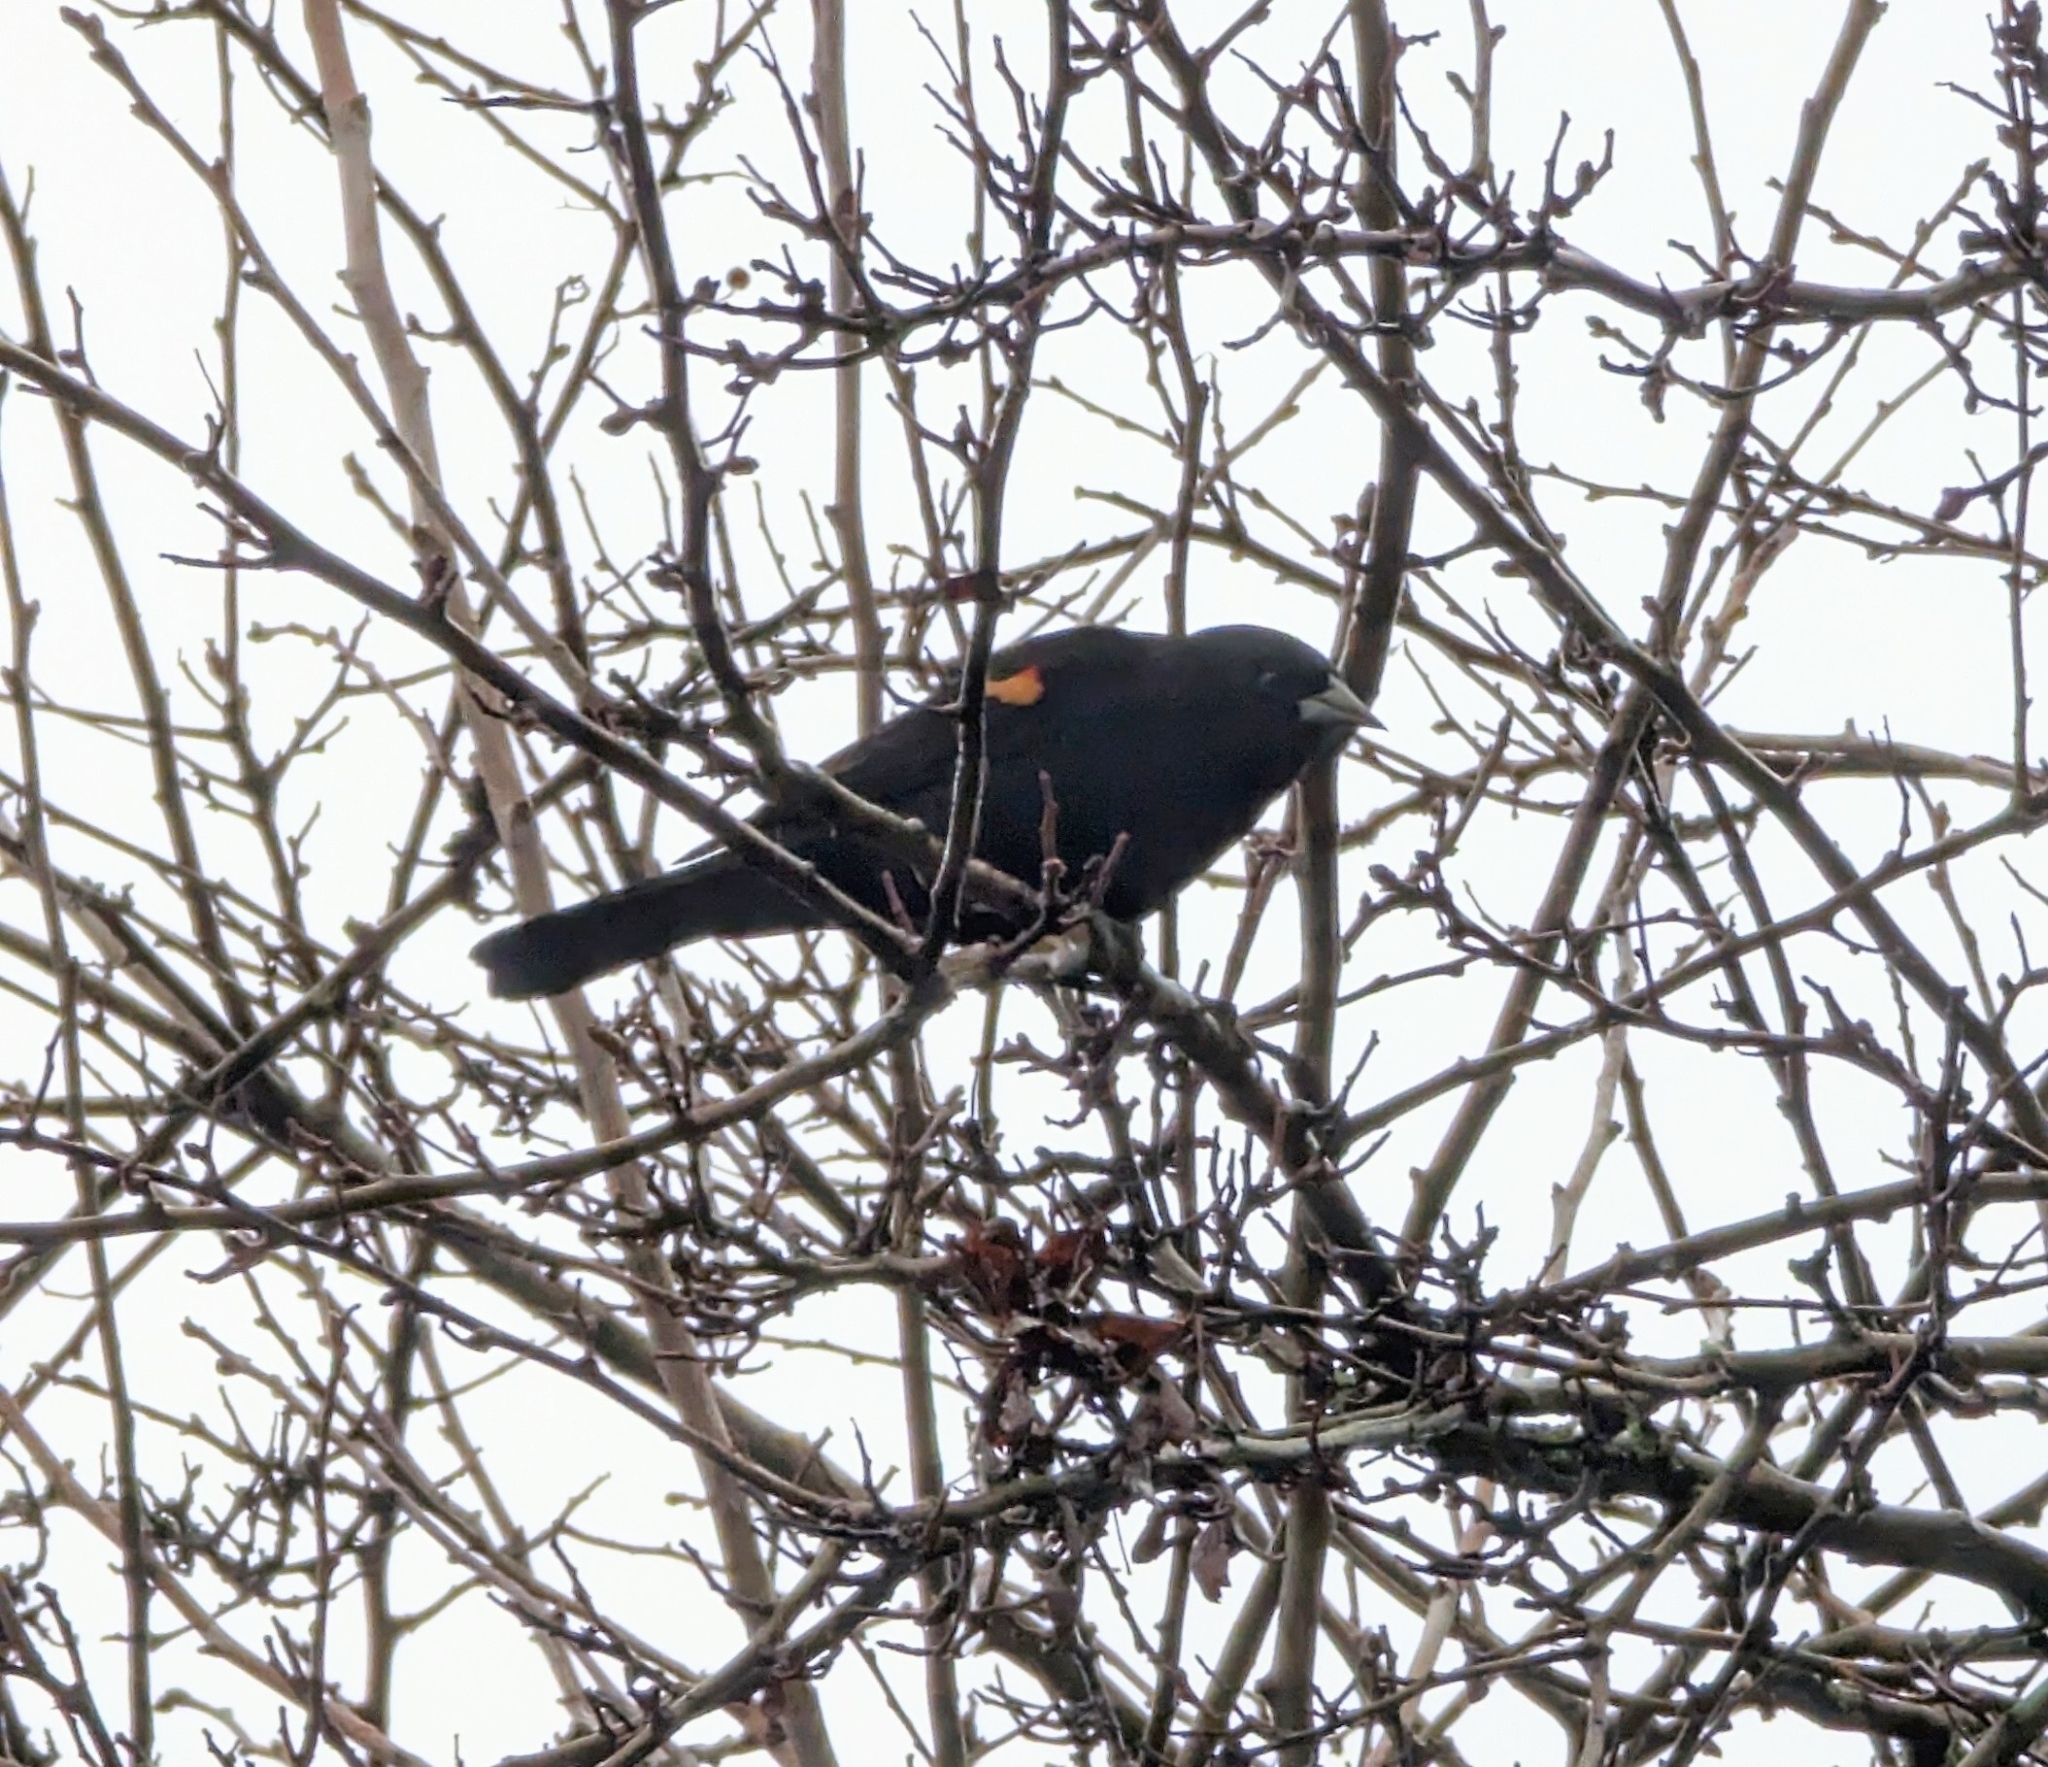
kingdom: Animalia
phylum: Chordata
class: Aves
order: Passeriformes
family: Icteridae
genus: Agelaius
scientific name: Agelaius phoeniceus
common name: Red-winged blackbird
